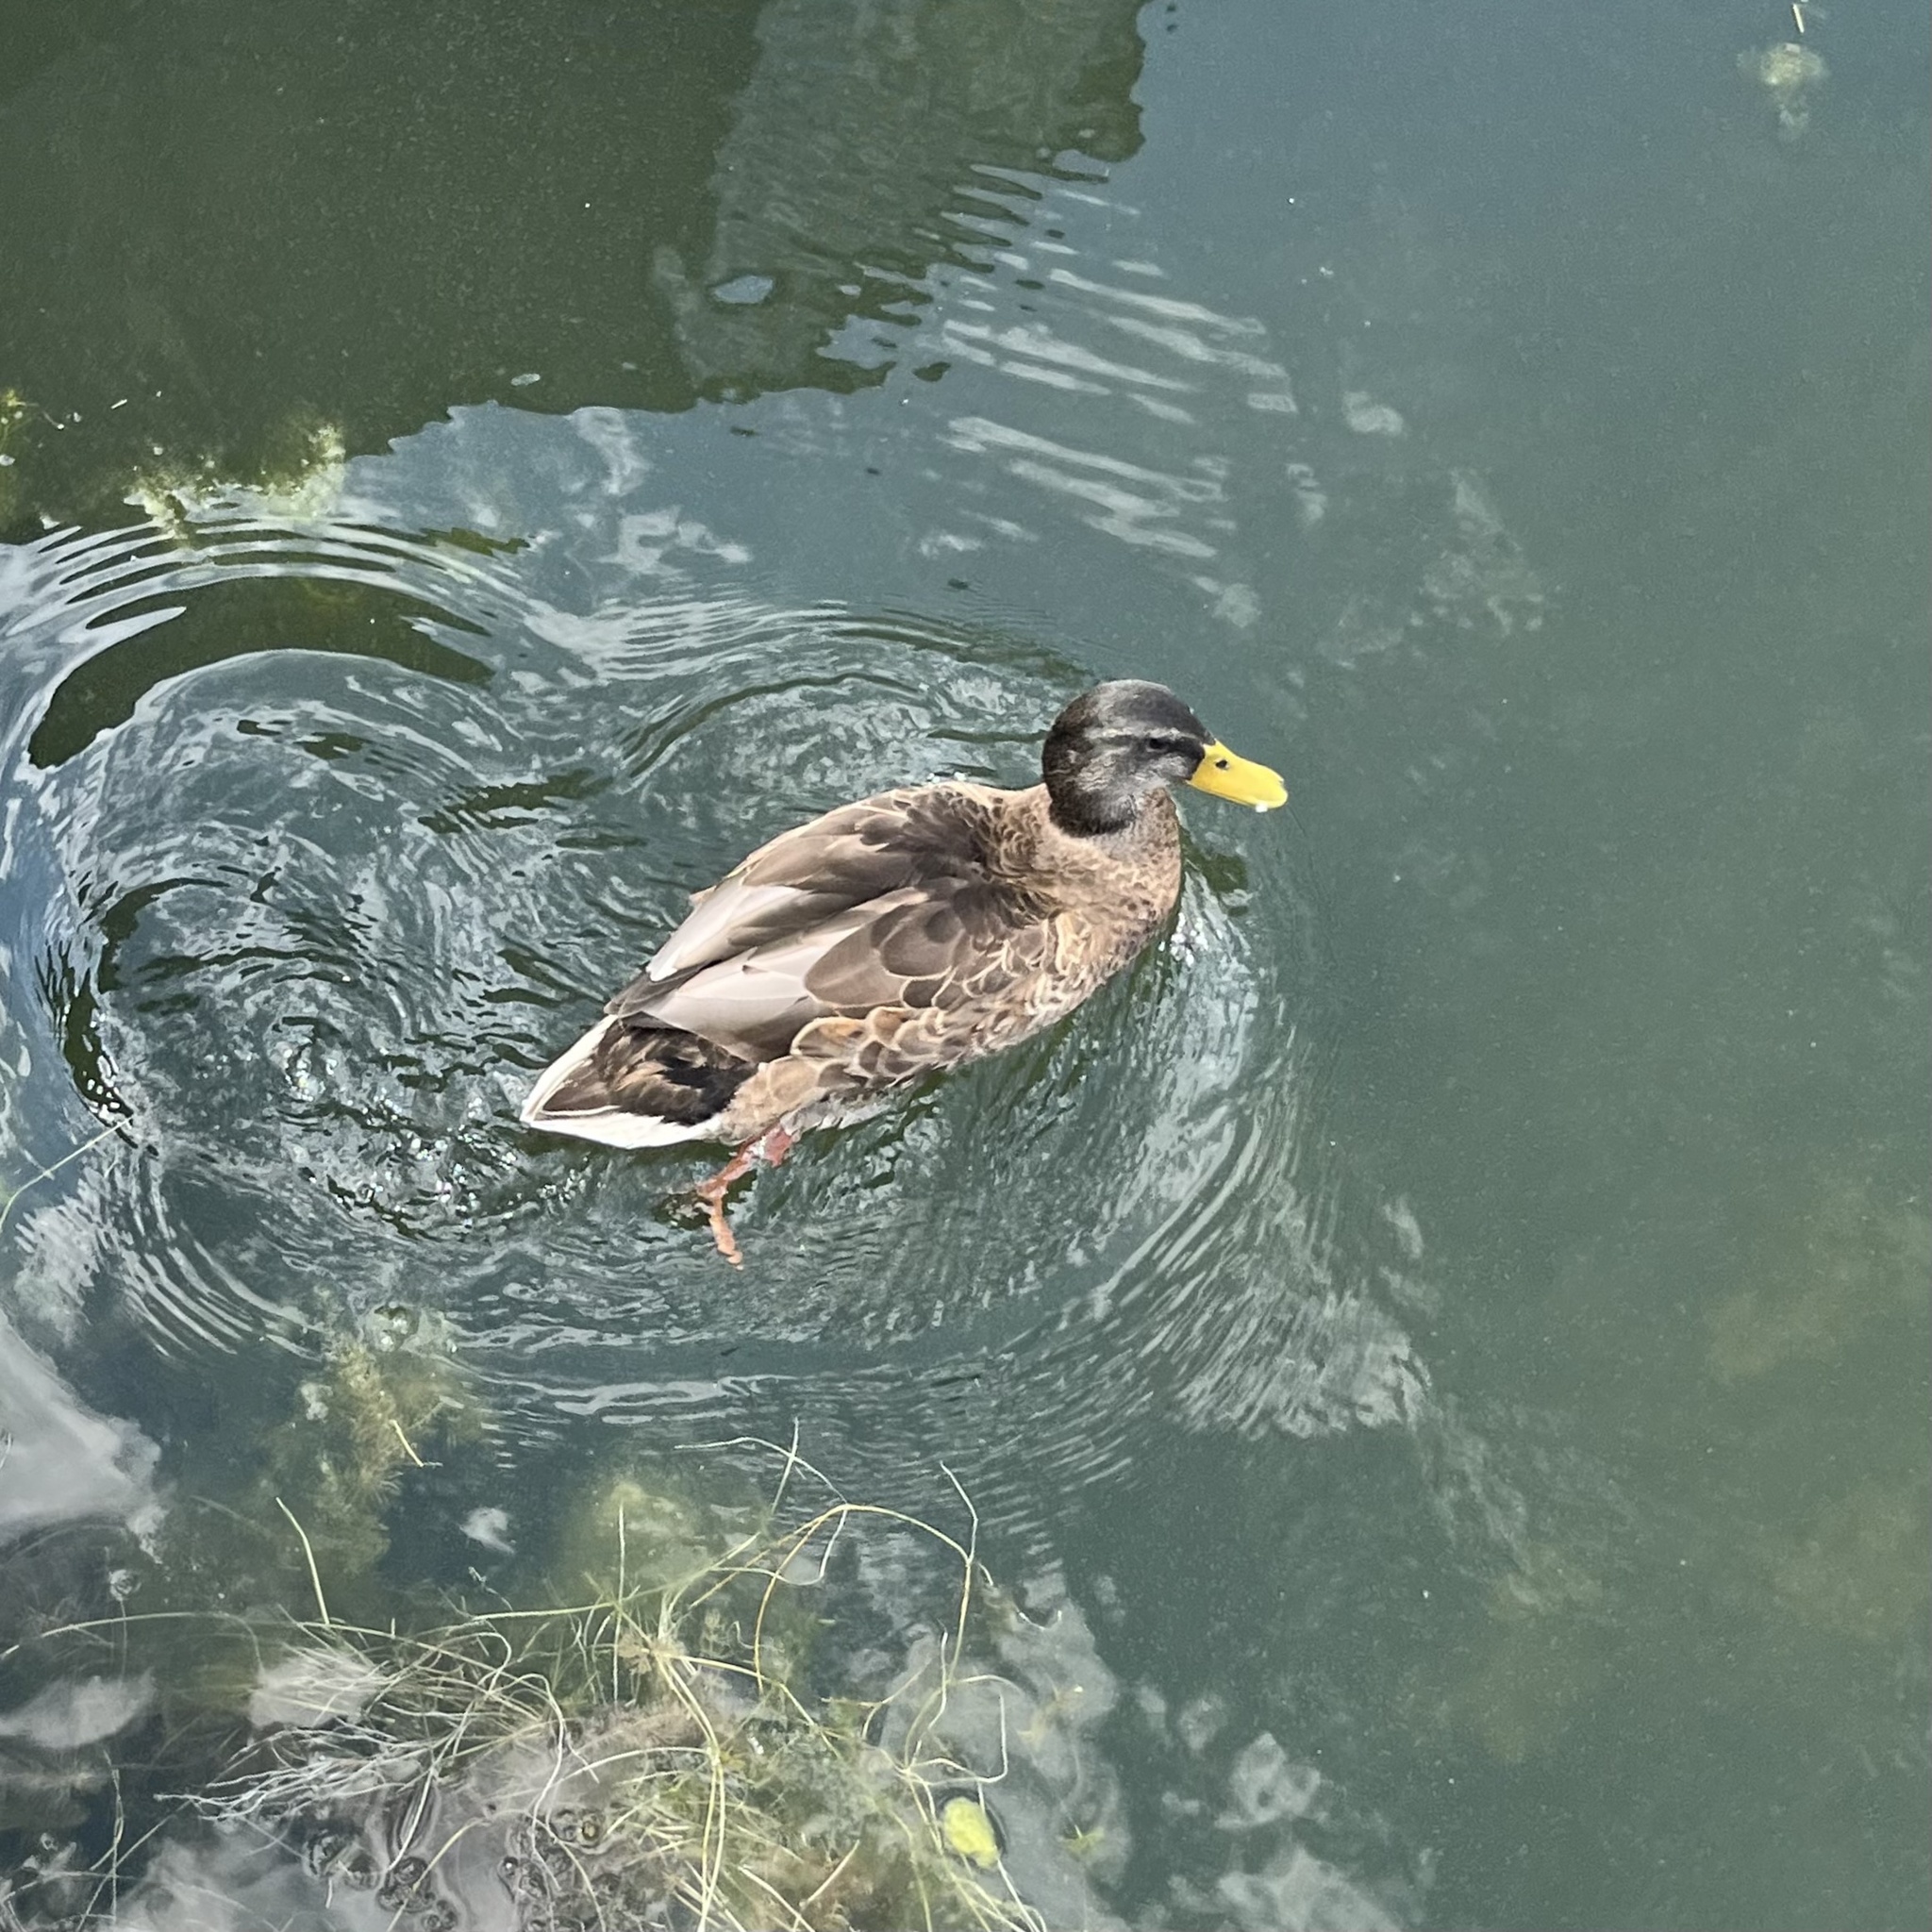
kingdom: Animalia
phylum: Chordata
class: Aves
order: Anseriformes
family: Anatidae
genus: Anas
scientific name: Anas platyrhynchos
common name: Mallard
